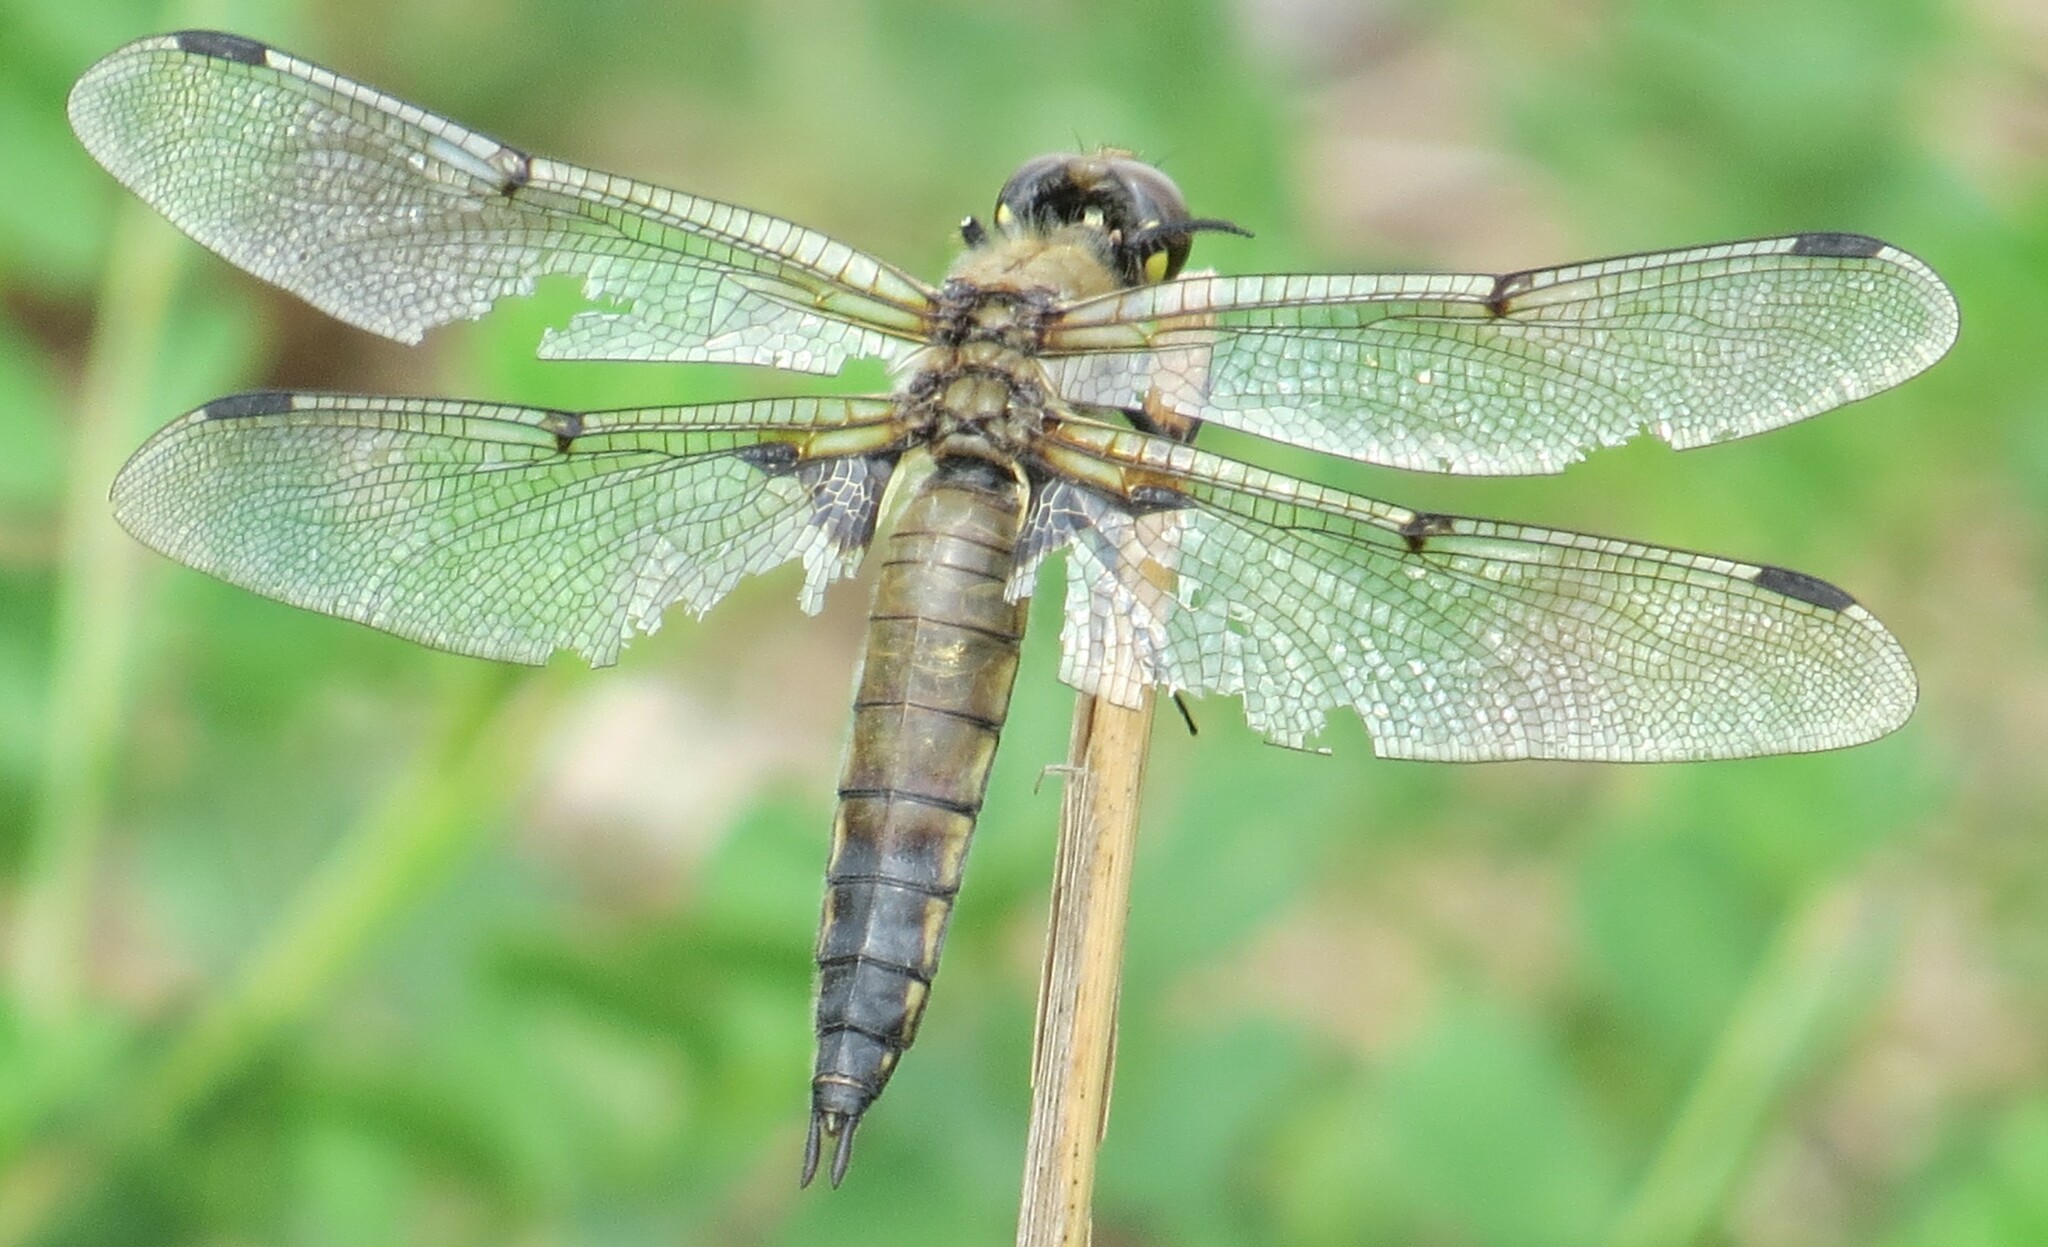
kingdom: Animalia
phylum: Arthropoda
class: Insecta
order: Odonata
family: Libellulidae
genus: Libellula
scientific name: Libellula quadrimaculata
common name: Four-spotted chaser
